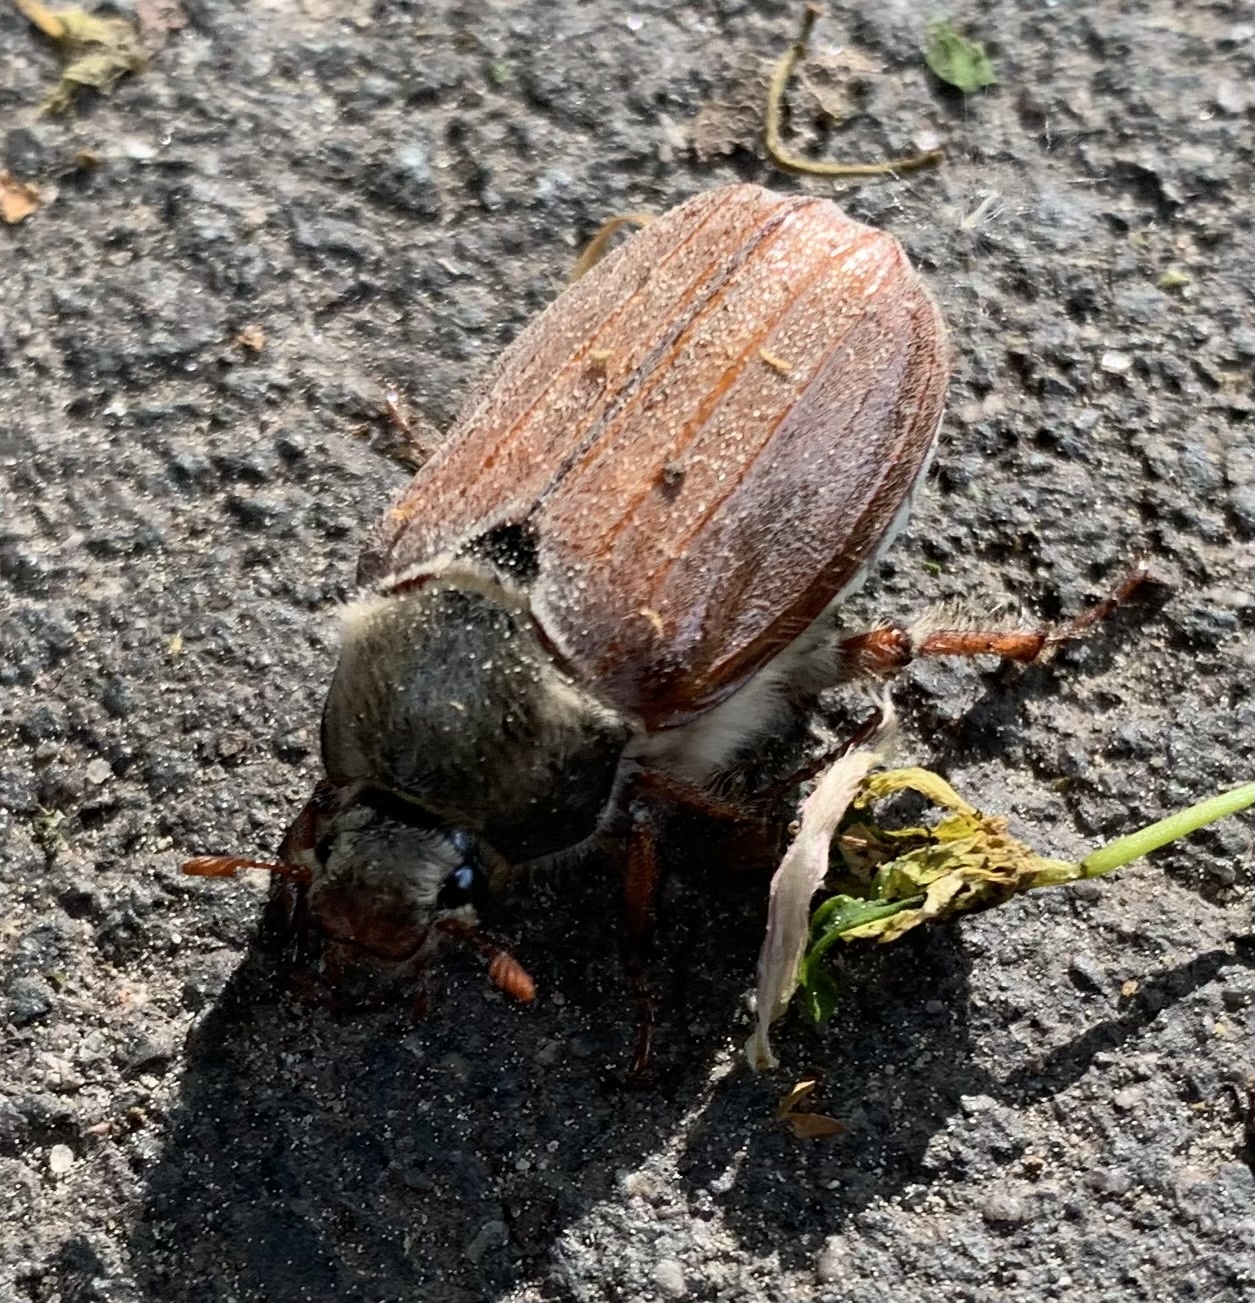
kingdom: Animalia
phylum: Arthropoda
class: Insecta
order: Coleoptera
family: Scarabaeidae
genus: Melolontha
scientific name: Melolontha melolontha
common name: Cockchafer maybeetle
